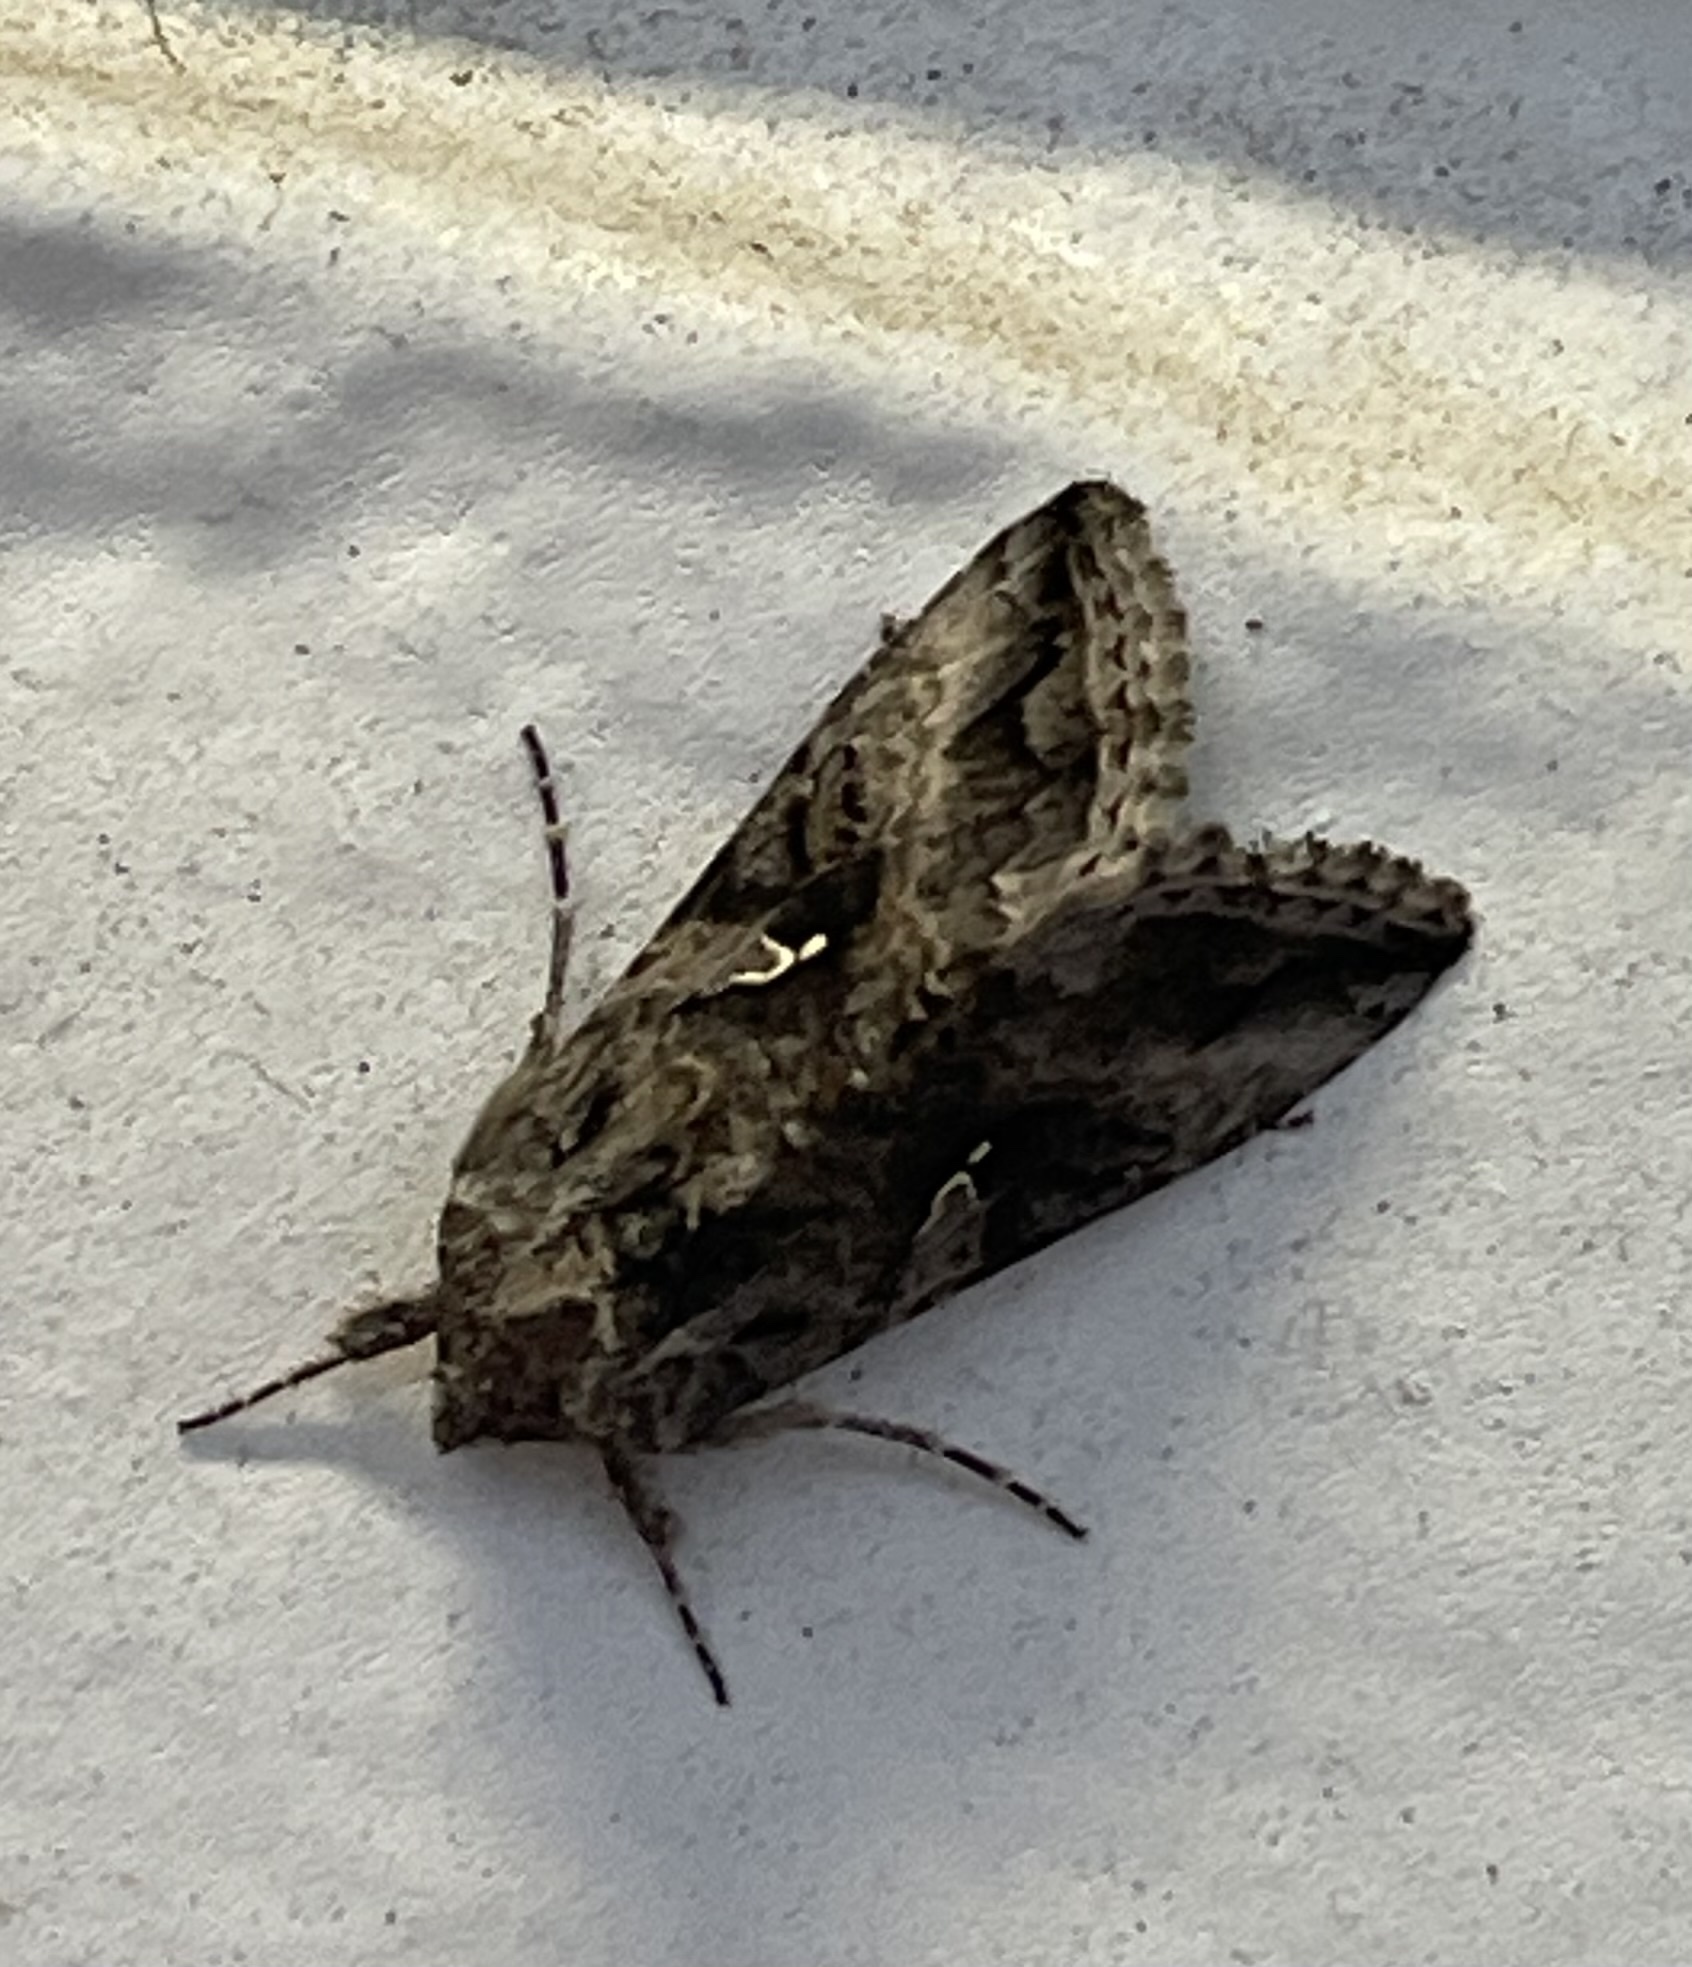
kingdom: Animalia
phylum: Arthropoda
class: Insecta
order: Lepidoptera
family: Noctuidae
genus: Rachiplusia
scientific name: Rachiplusia ou
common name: Gray looper moth
